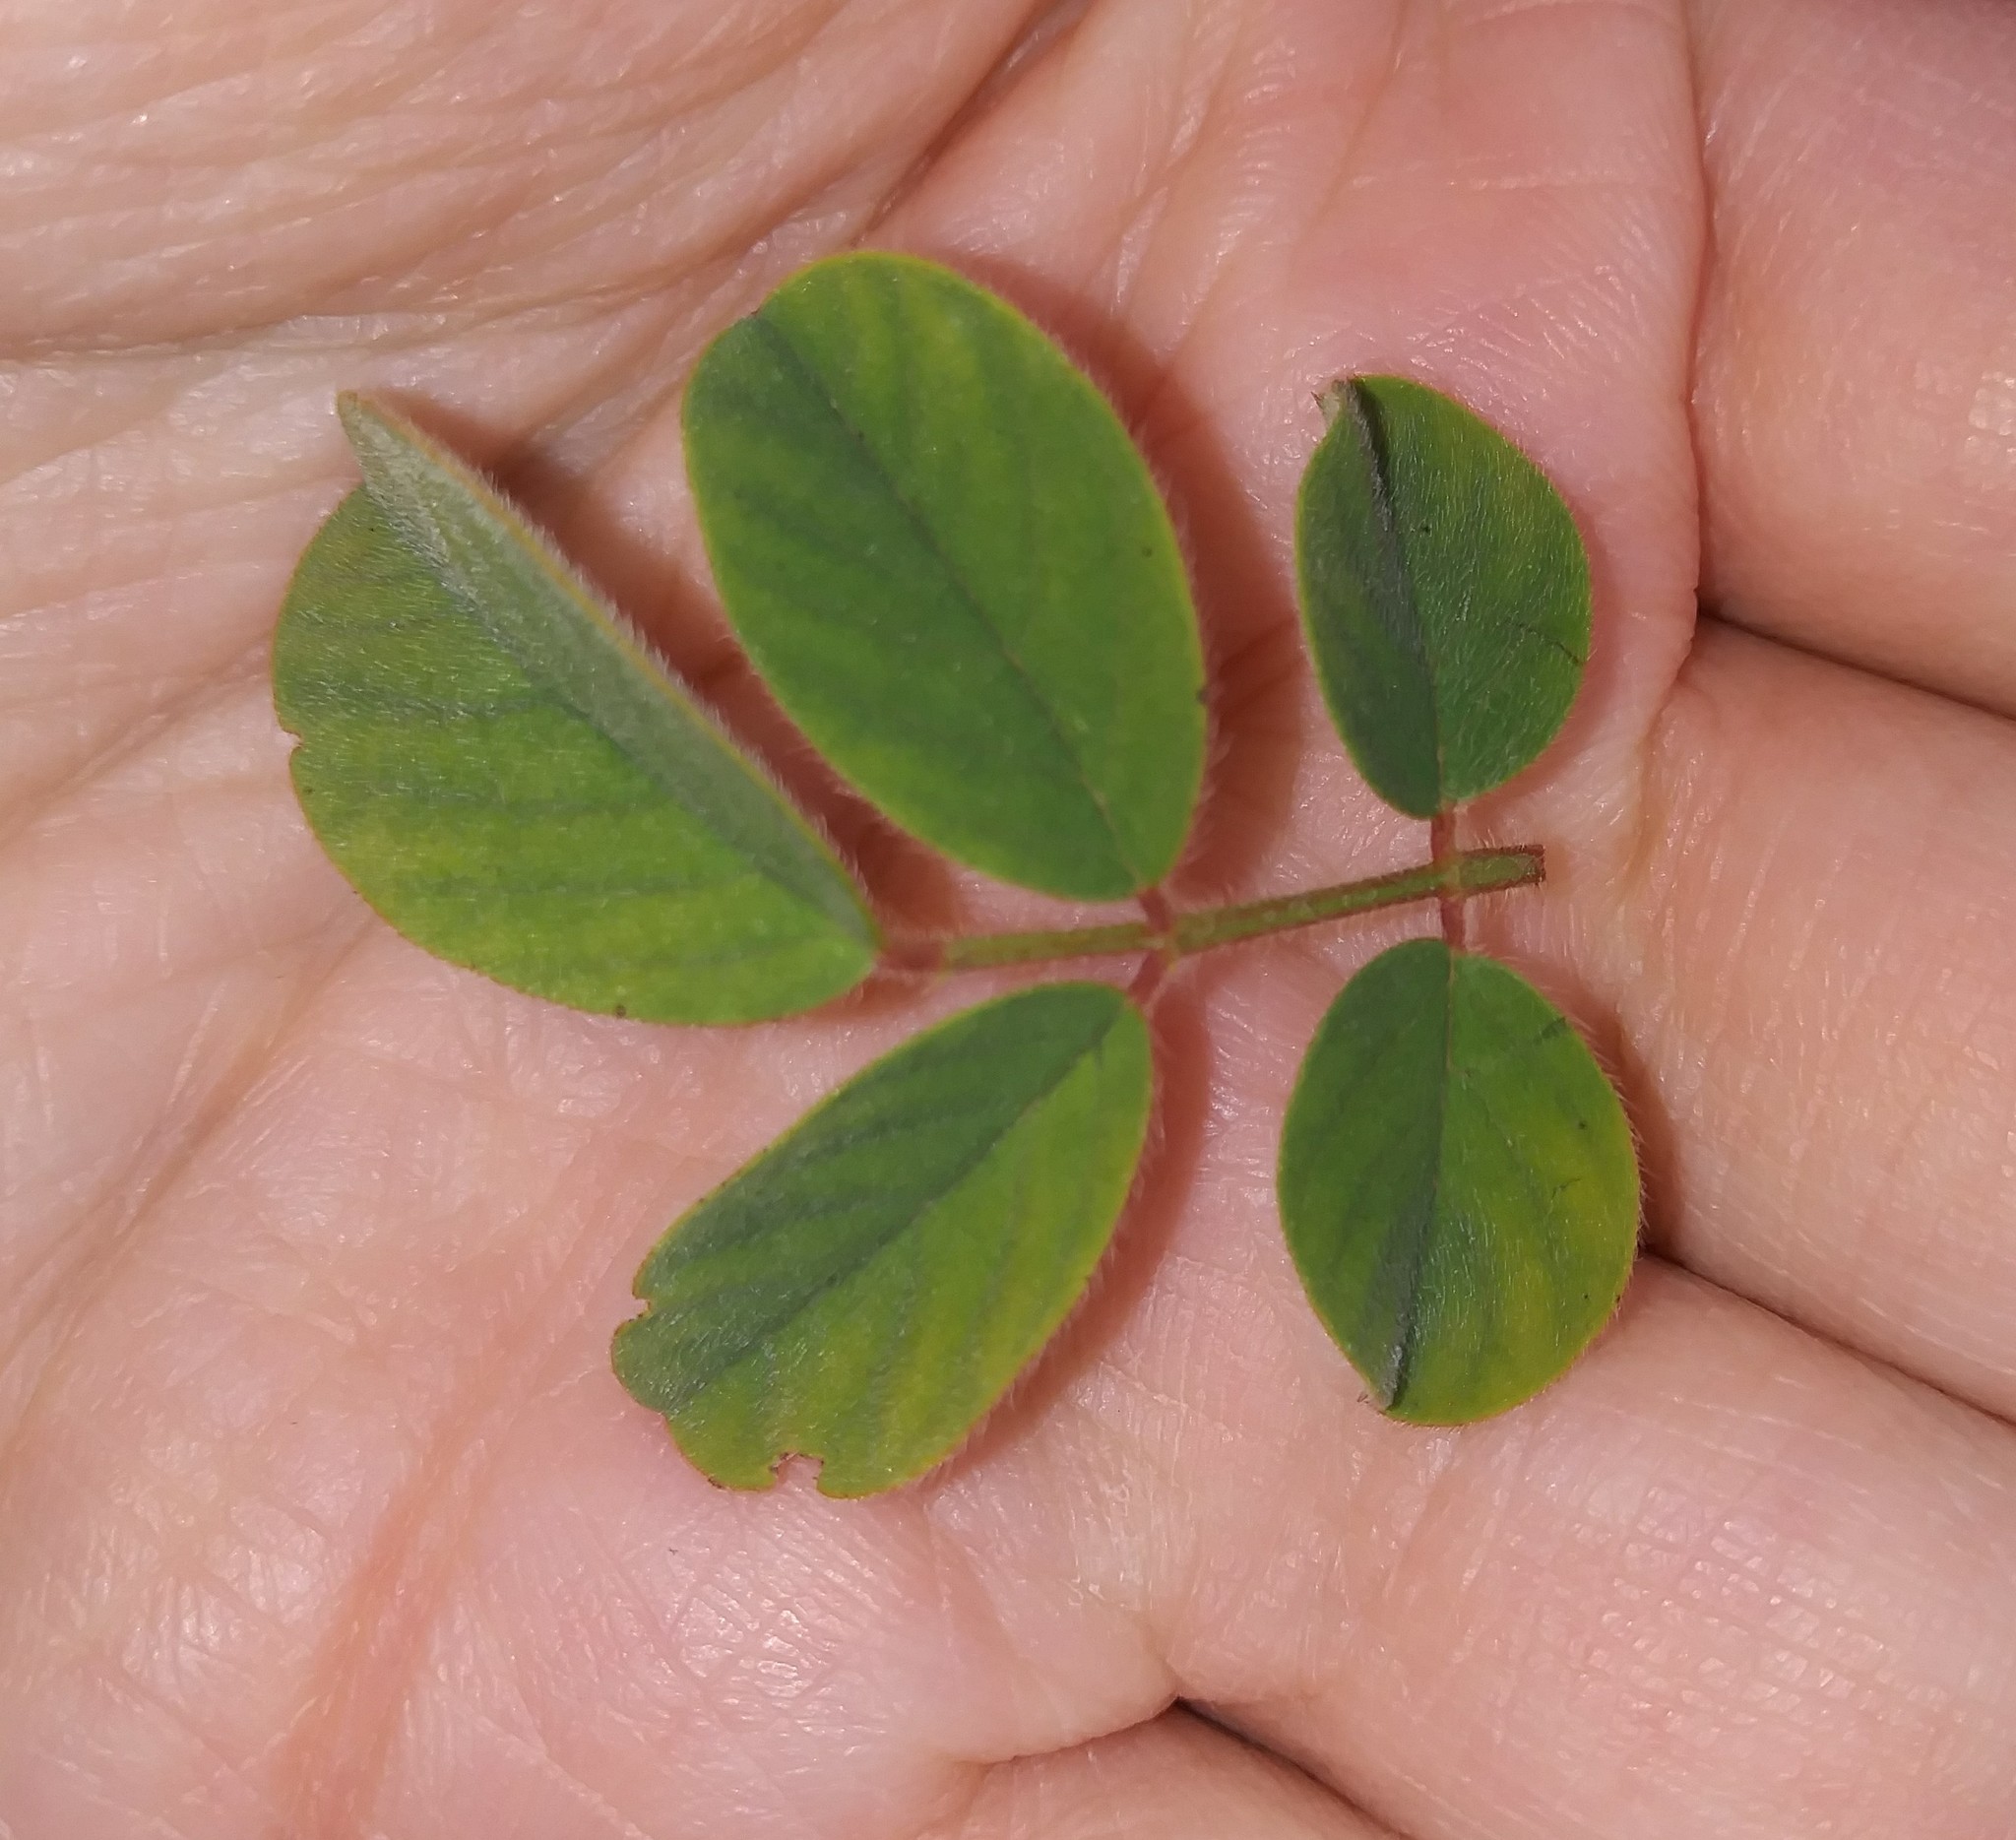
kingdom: Plantae
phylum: Tracheophyta
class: Magnoliopsida
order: Fabales
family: Fabaceae
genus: Indigofera
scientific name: Indigofera hirsuta
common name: Hairy indigo
